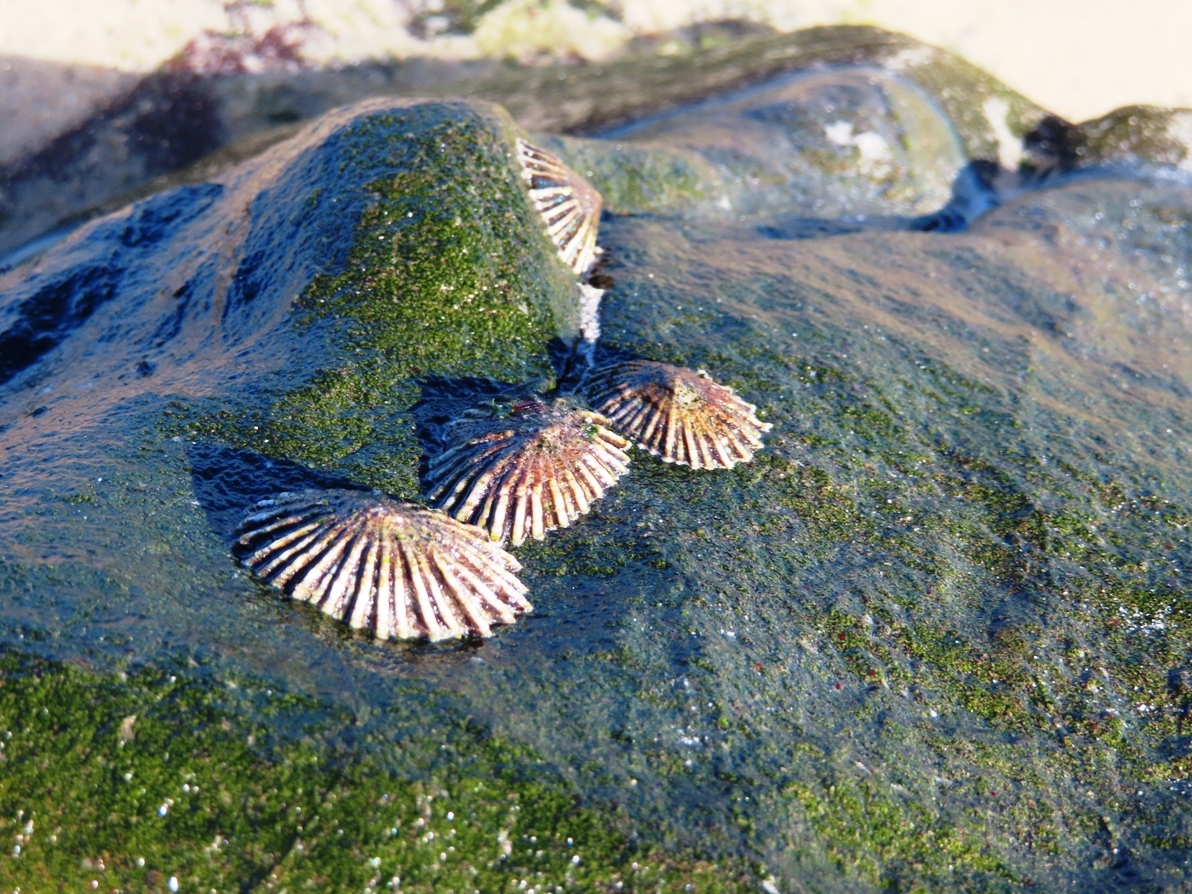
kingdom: Animalia
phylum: Mollusca
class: Gastropoda
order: Siphonariida
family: Siphonariidae
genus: Siphonaria
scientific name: Siphonaria concinna
